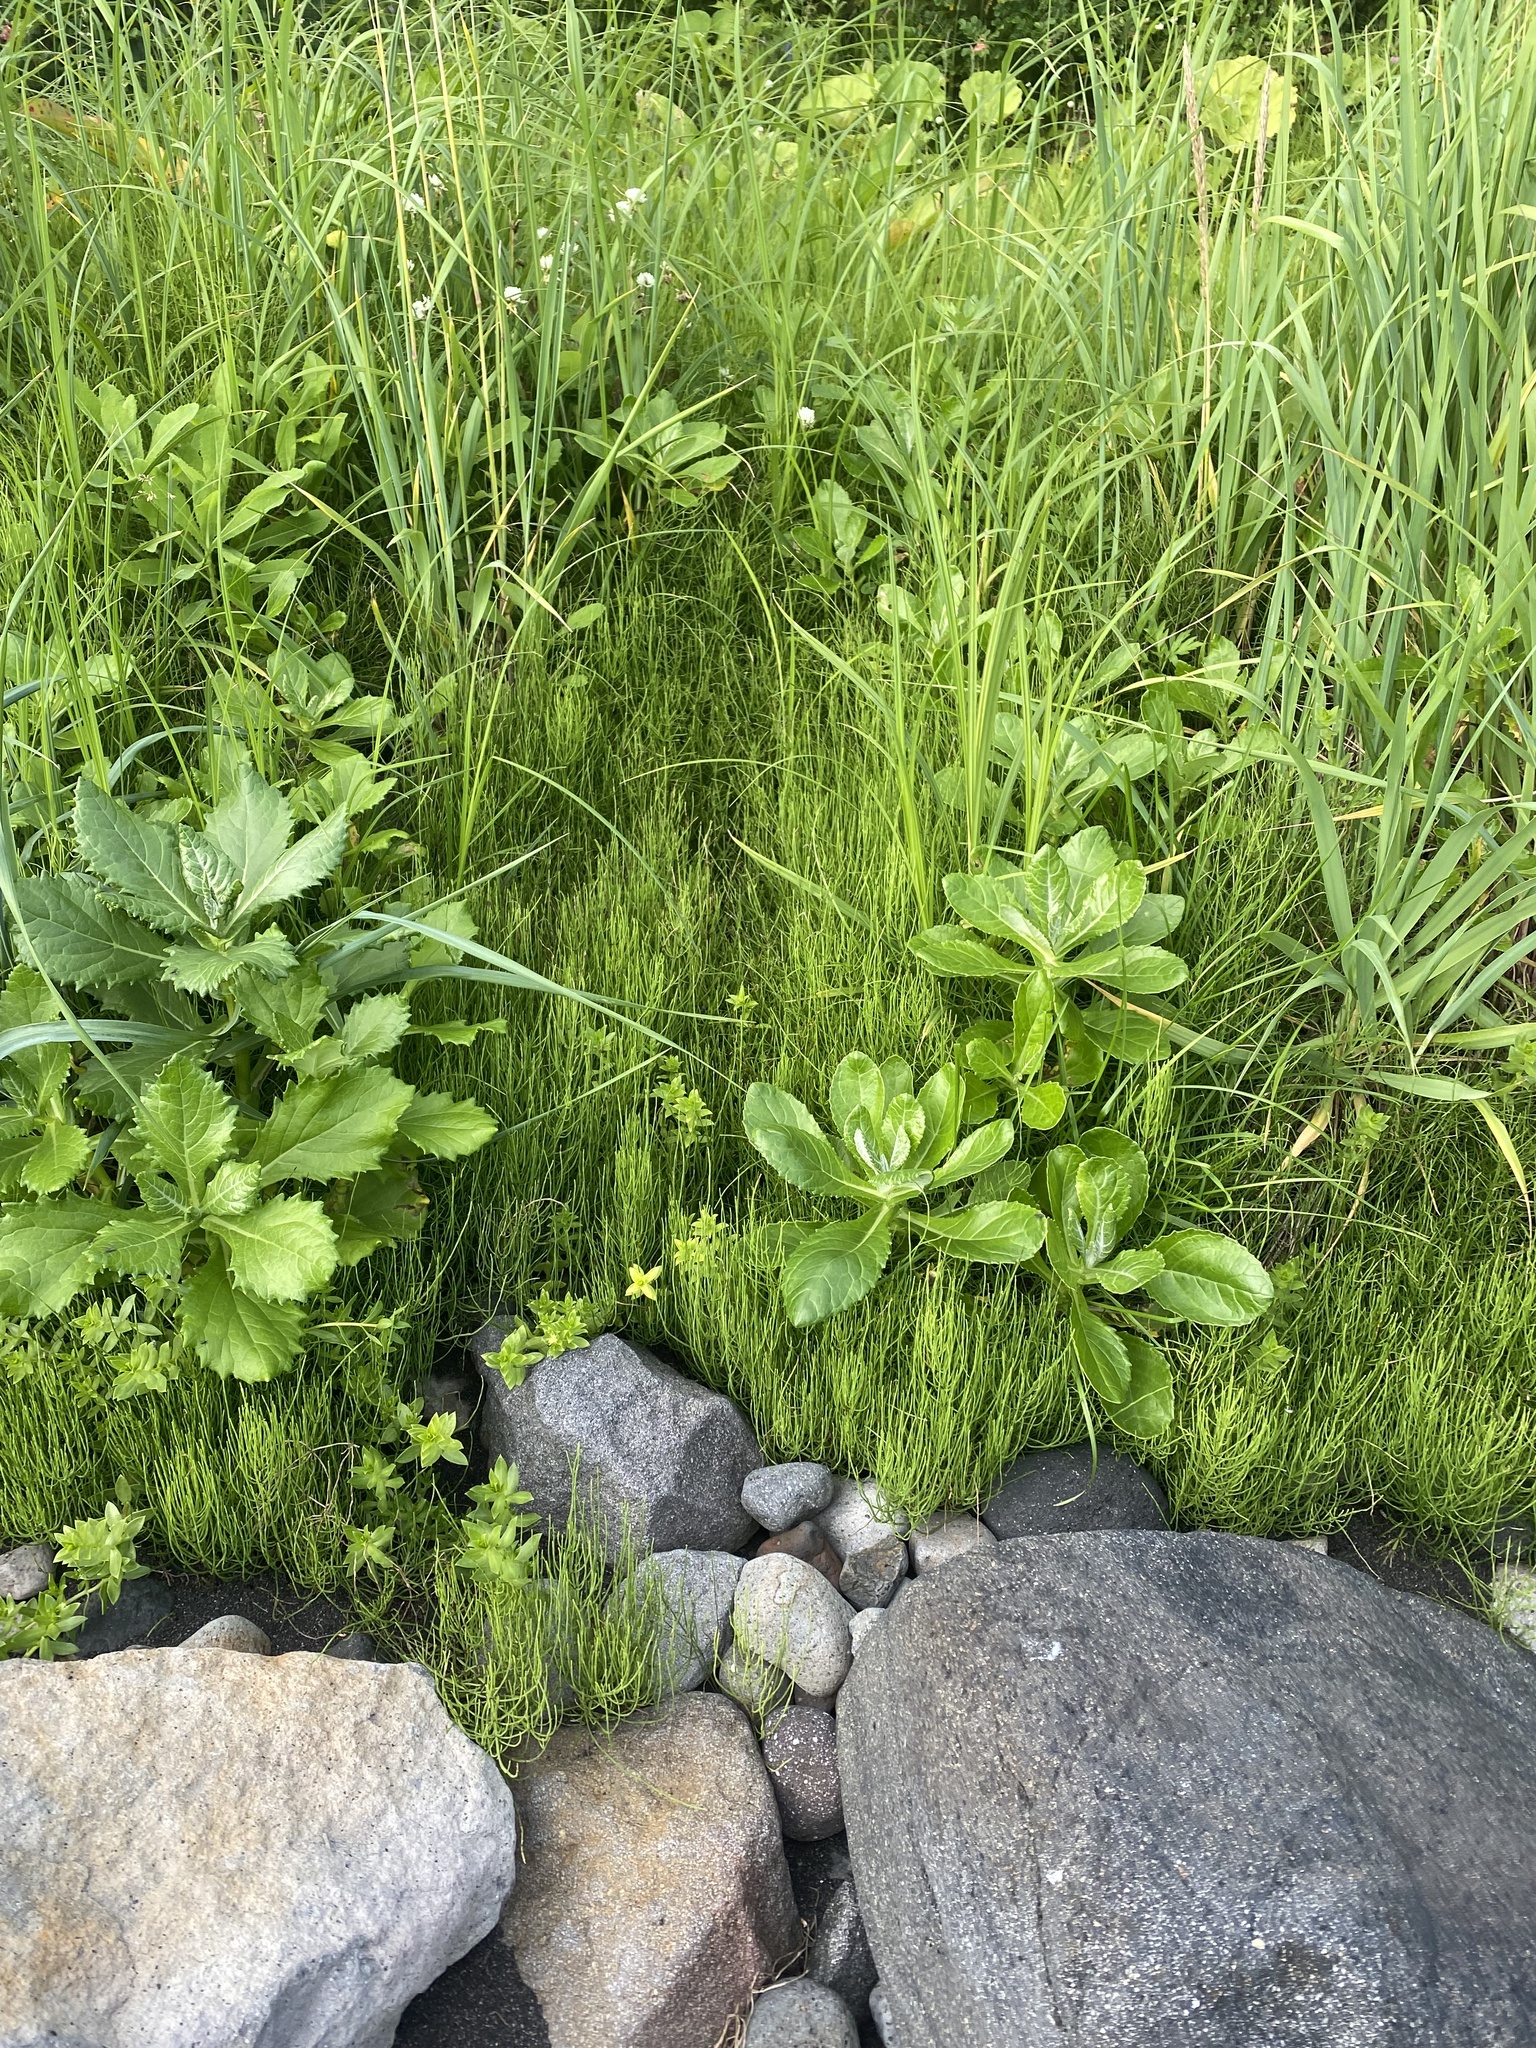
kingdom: Plantae
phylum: Tracheophyta
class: Magnoliopsida
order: Asterales
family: Asteraceae
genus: Jacobaea
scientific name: Jacobaea pseudoarnica
